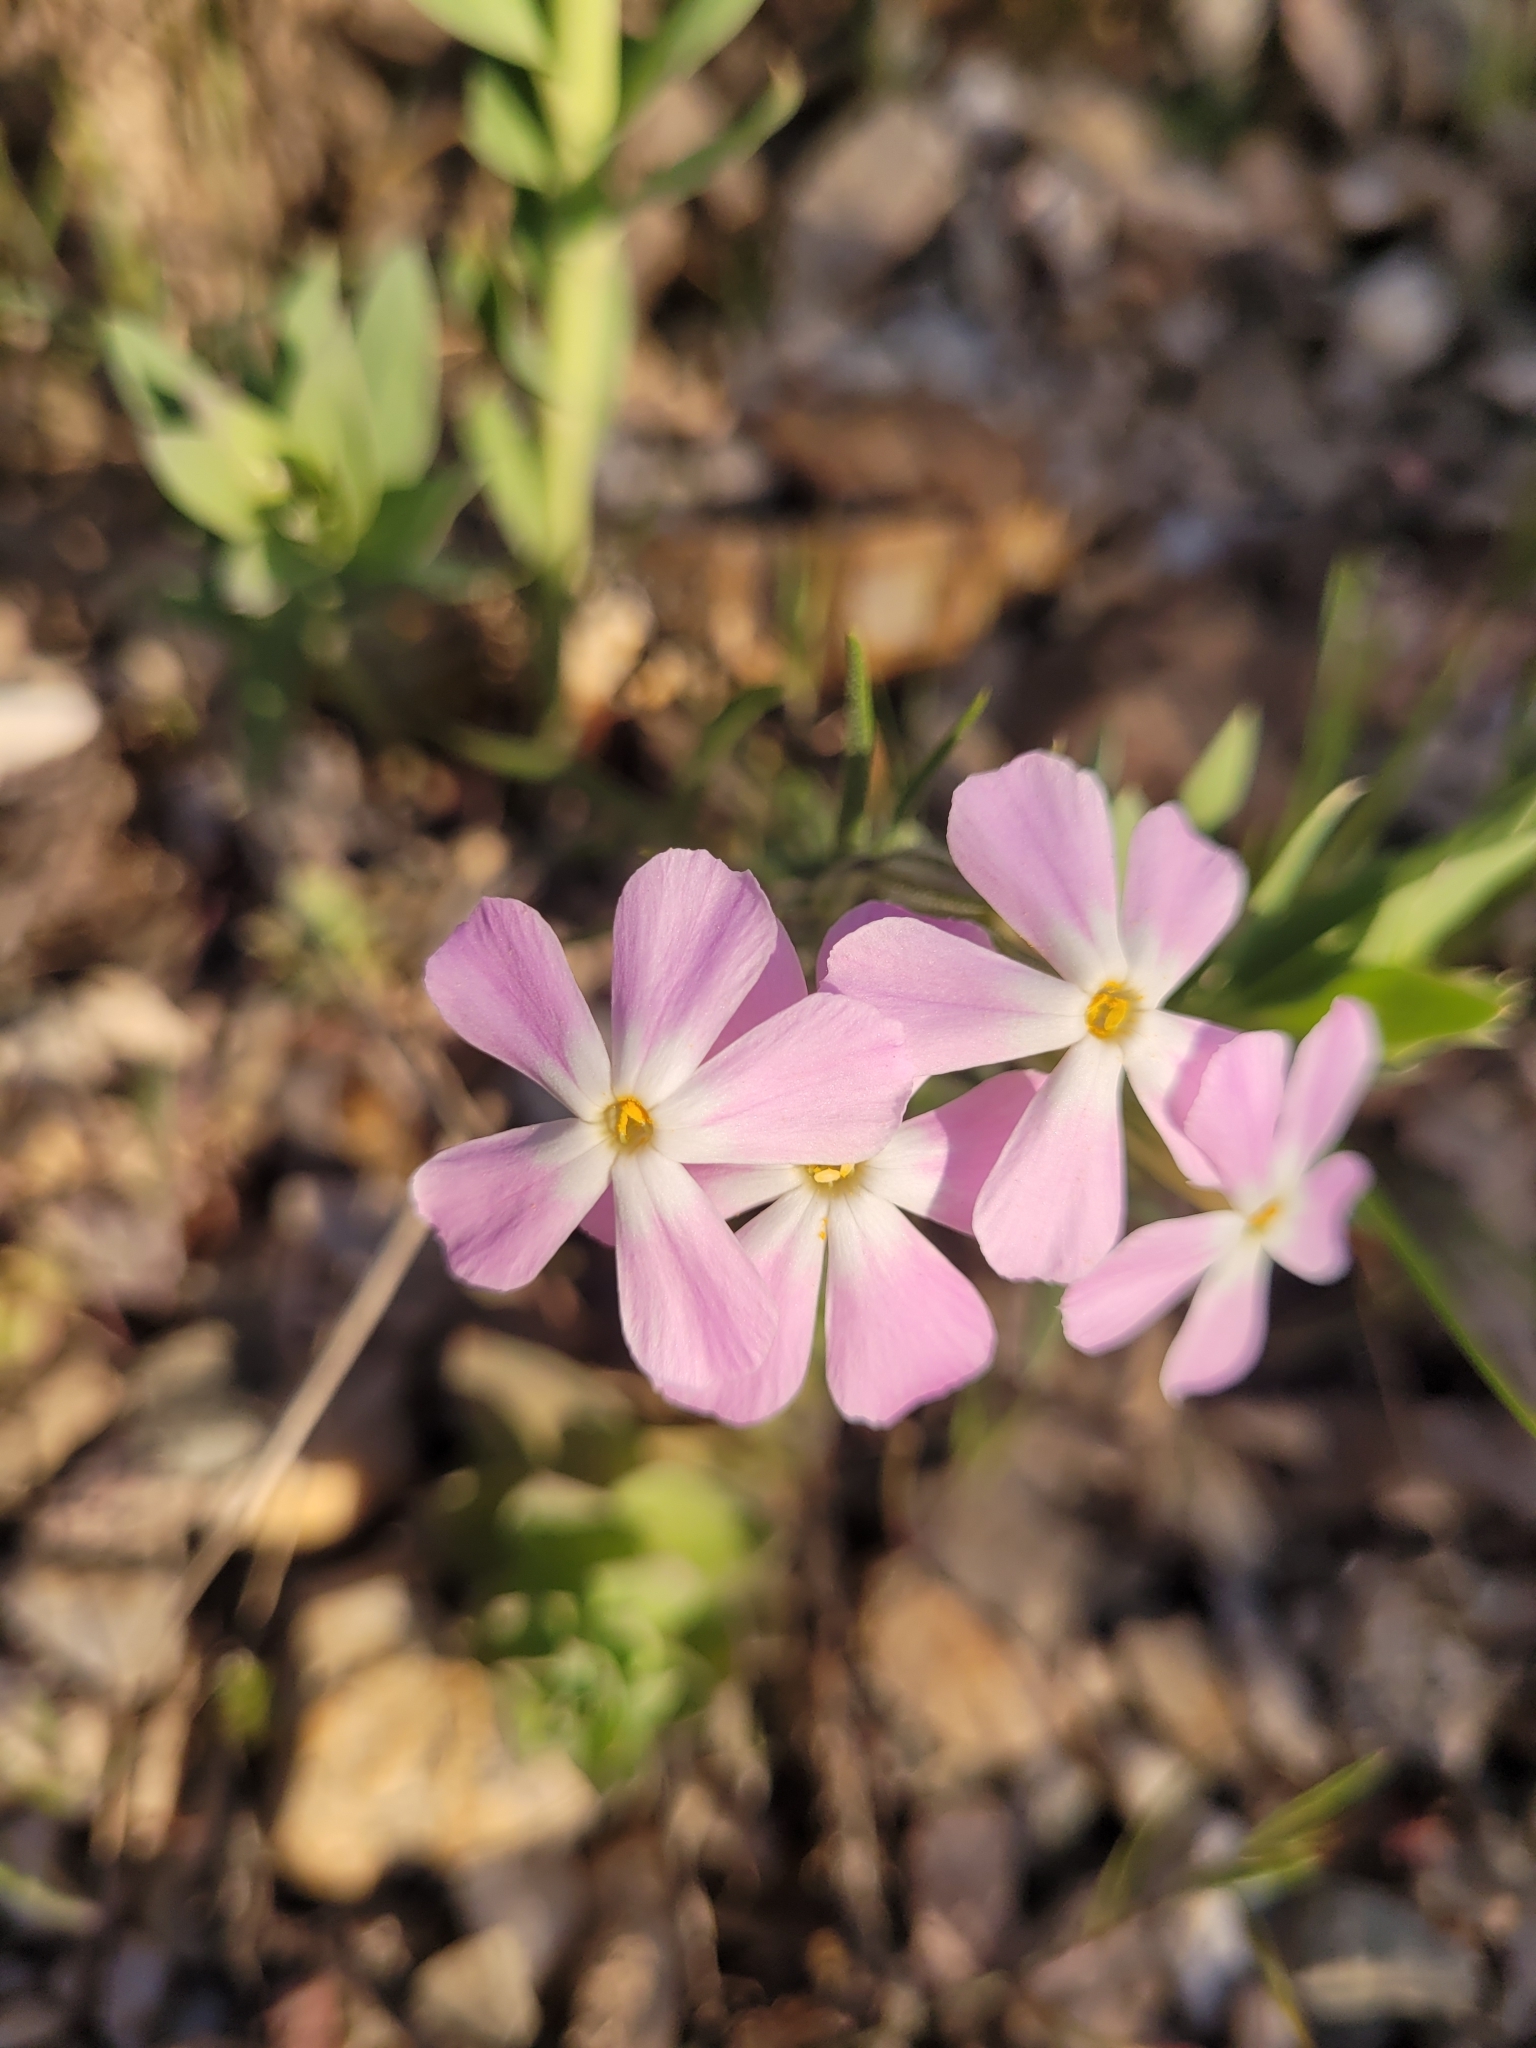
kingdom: Plantae
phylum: Tracheophyta
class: Magnoliopsida
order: Ericales
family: Polemoniaceae
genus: Phlox
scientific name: Phlox longifolia
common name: Longleaf phlox
